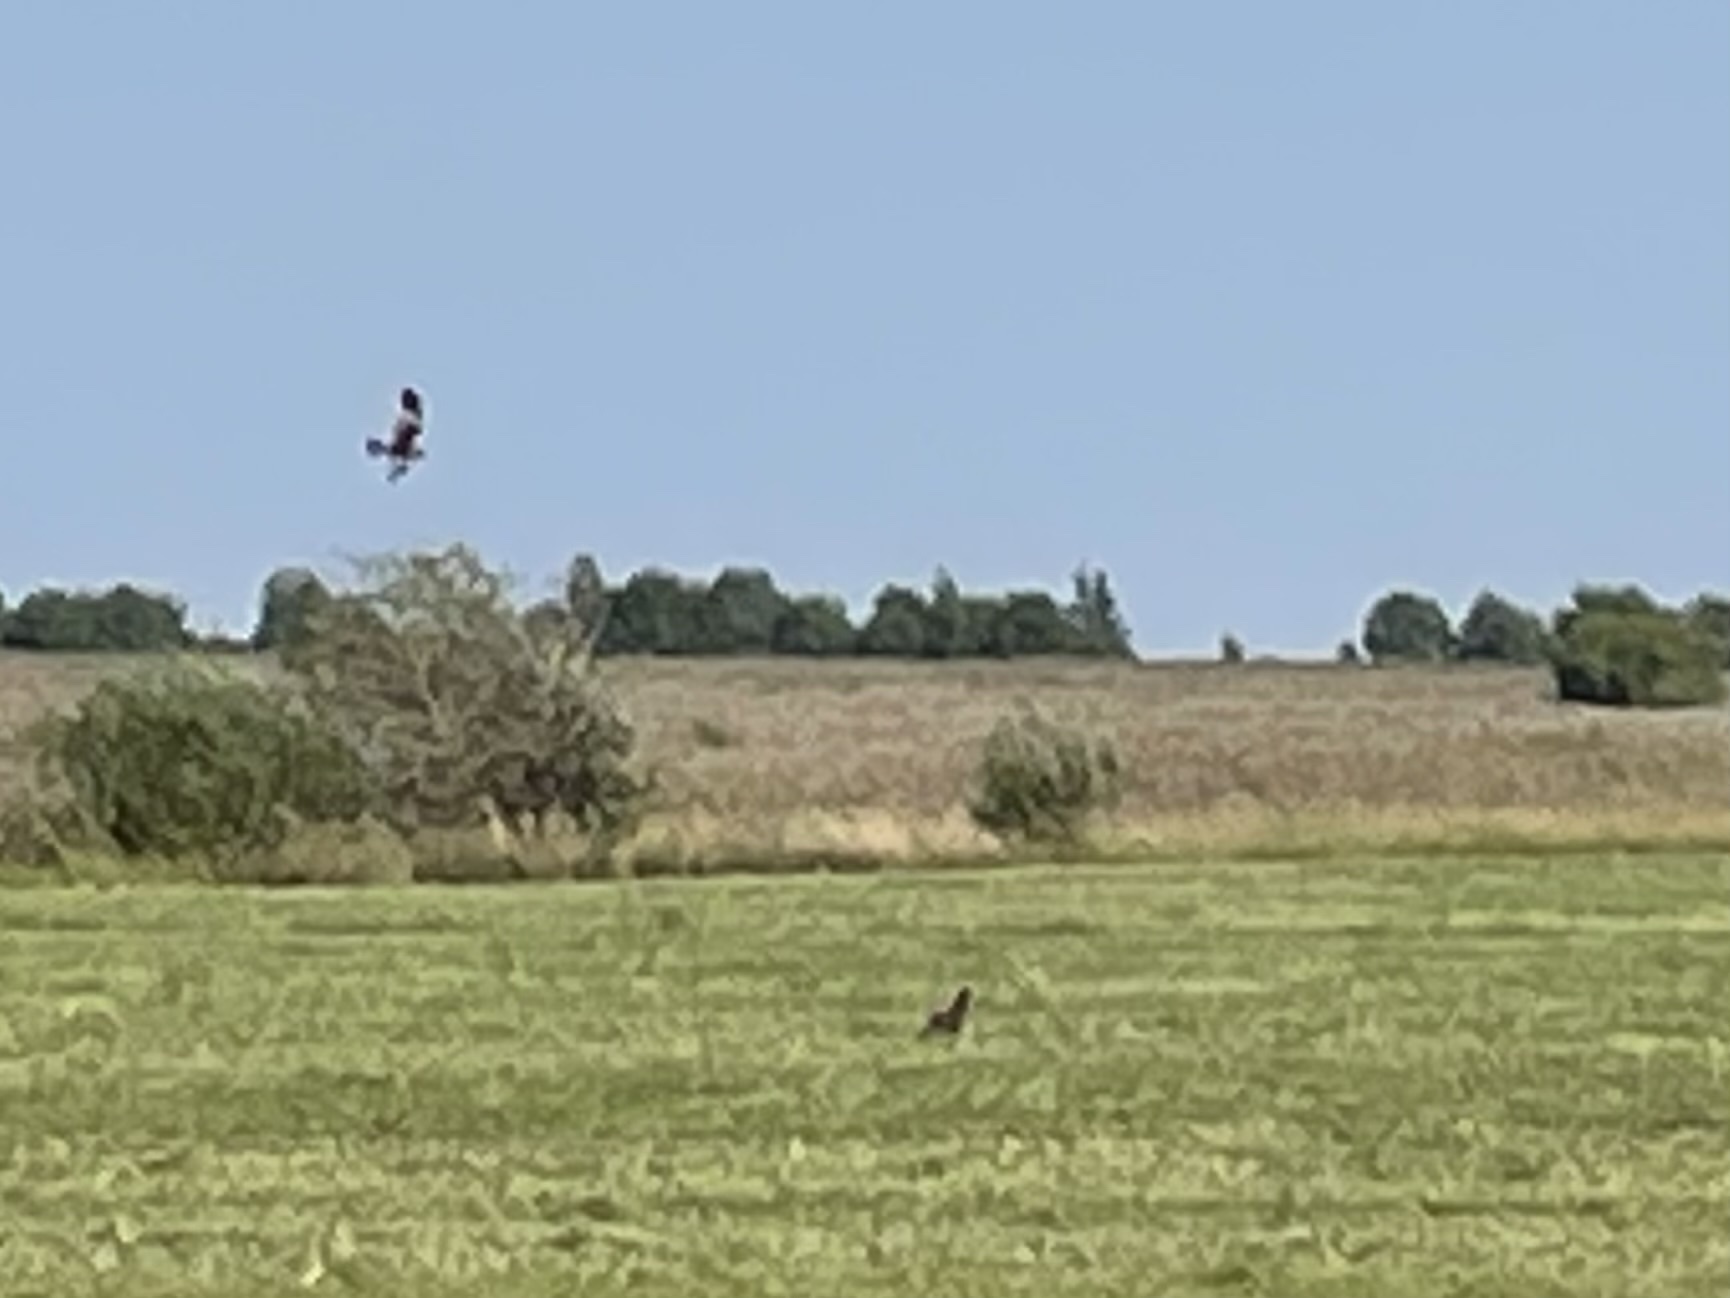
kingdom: Animalia
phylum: Chordata
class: Aves
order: Accipitriformes
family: Accipitridae
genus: Circus
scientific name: Circus aeruginosus
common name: Western marsh harrier
